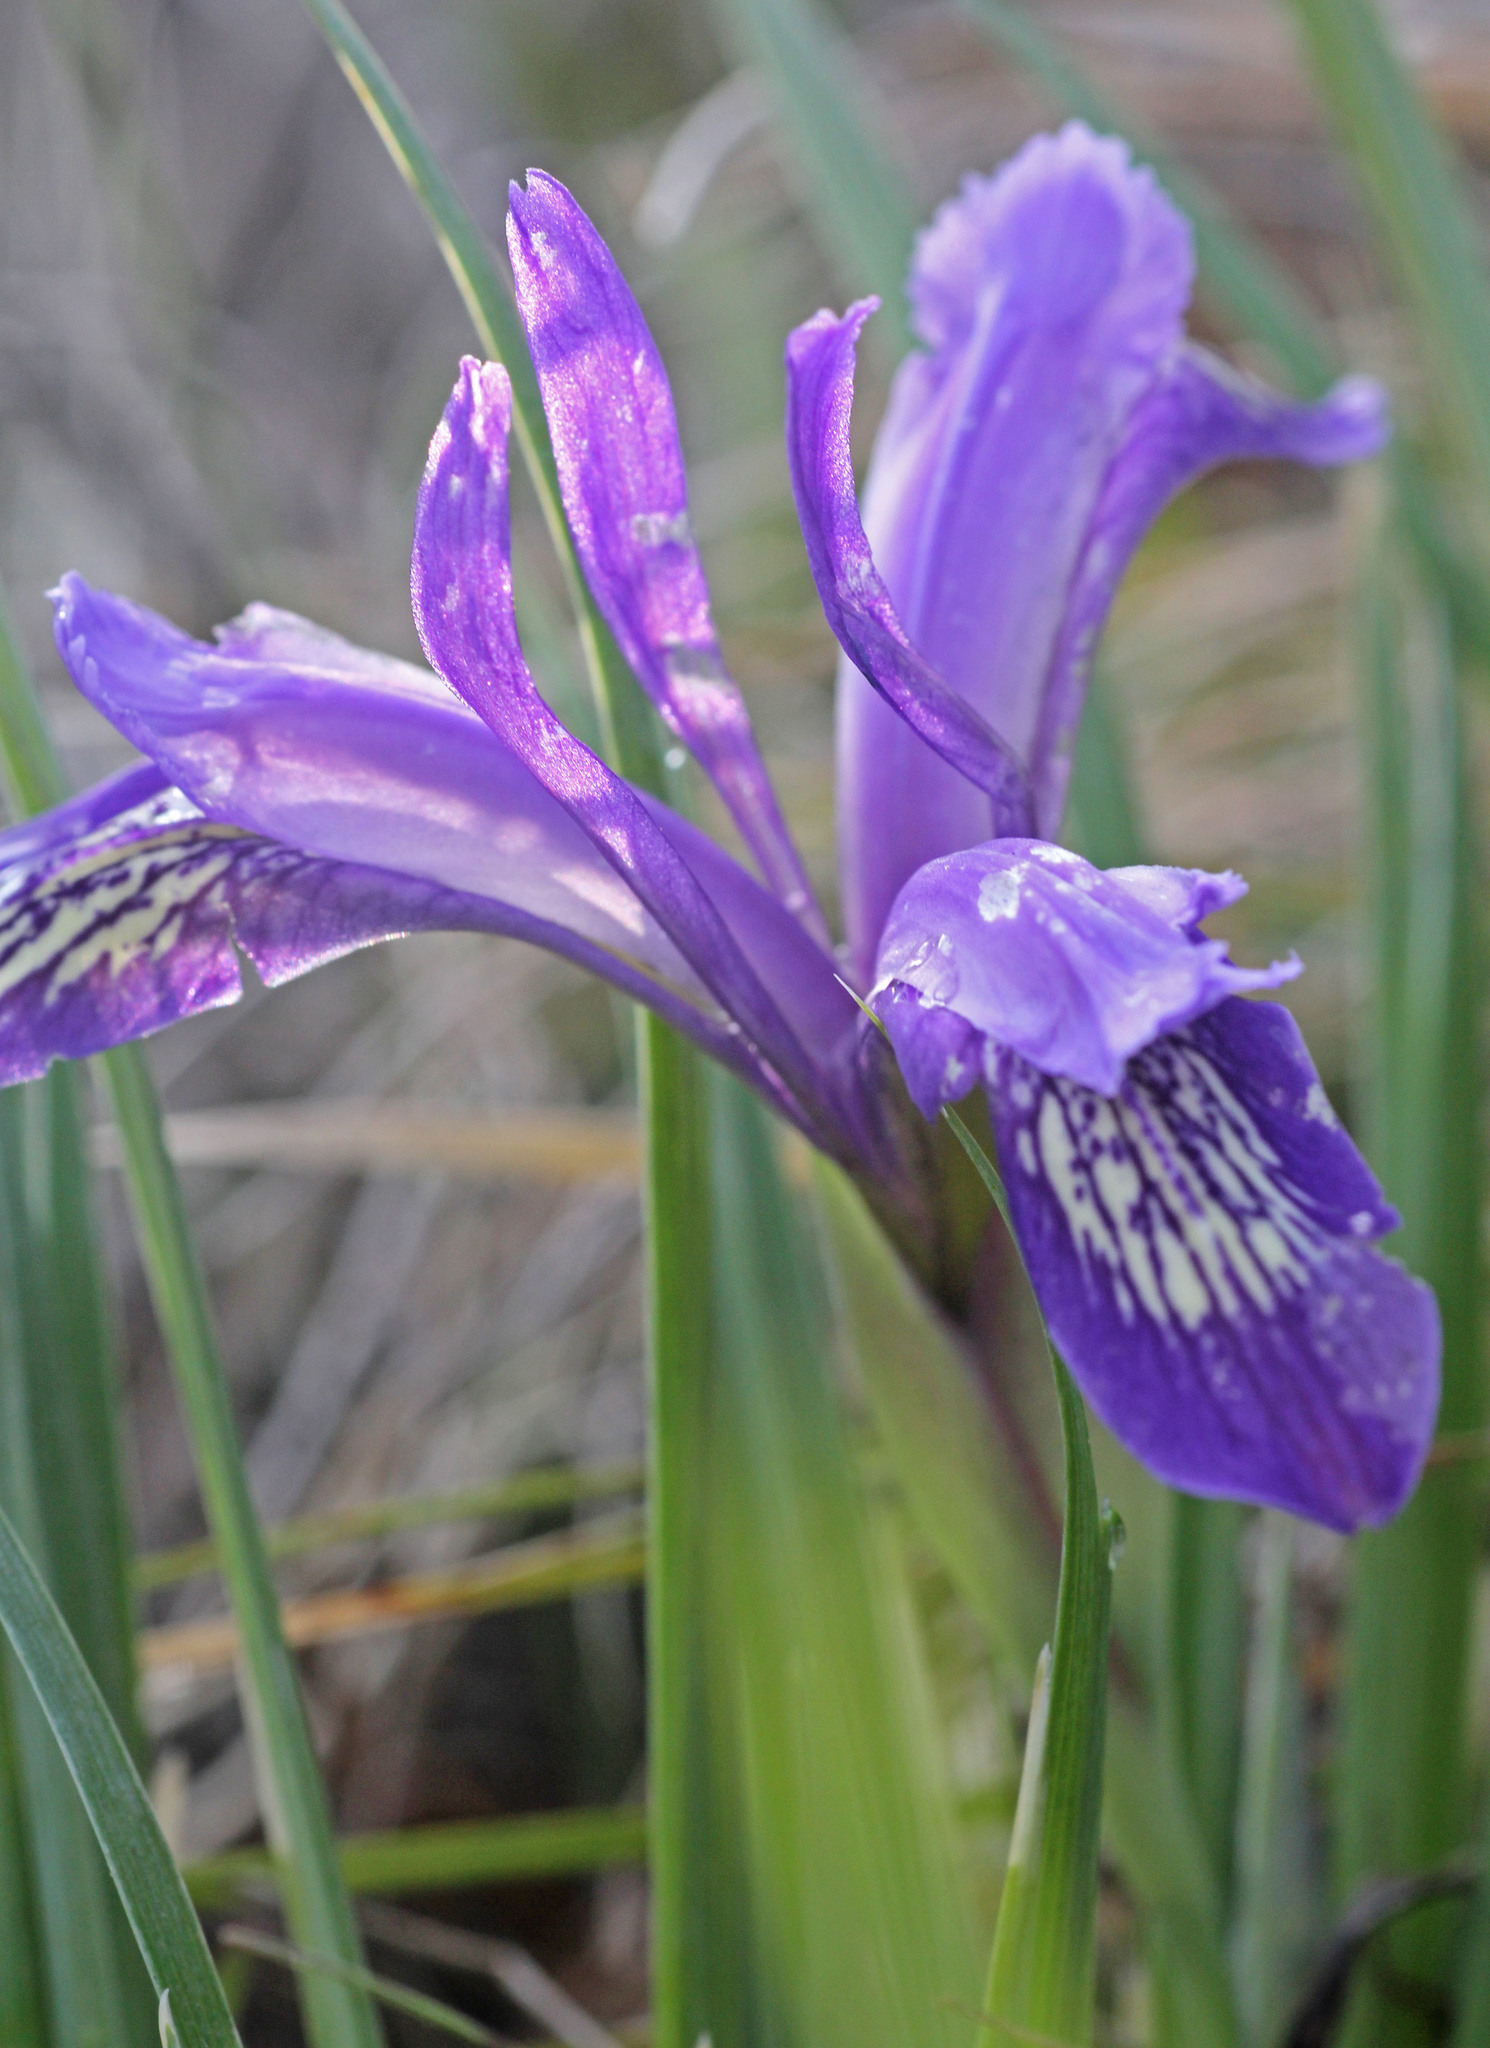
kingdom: Plantae
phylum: Tracheophyta
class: Liliopsida
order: Asparagales
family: Iridaceae
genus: Iris
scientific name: Iris ruthenica
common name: Purple-bract iris
